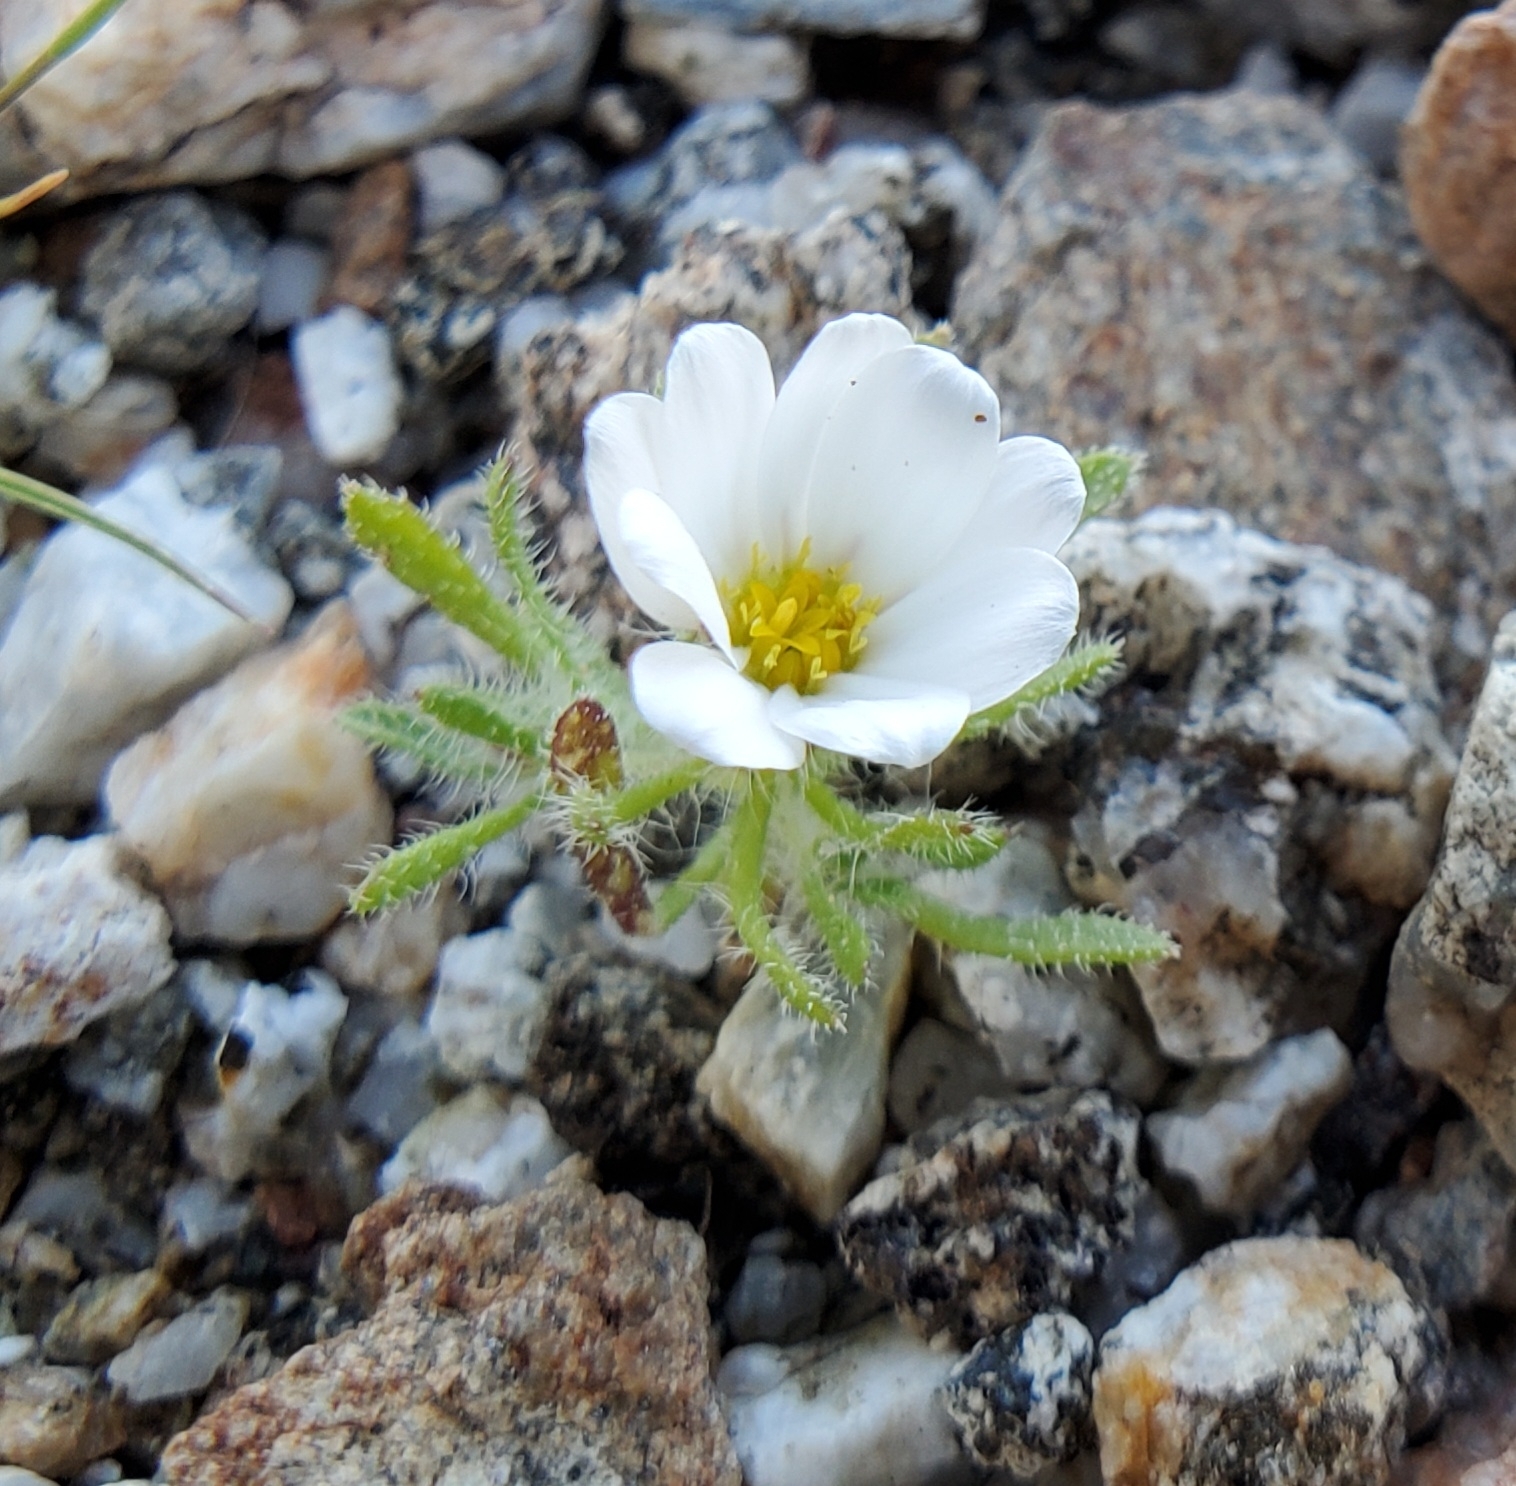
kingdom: Plantae
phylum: Tracheophyta
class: Magnoliopsida
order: Asterales
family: Asteraceae
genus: Monoptilon
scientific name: Monoptilon bellioides
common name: Bristly desertstar
